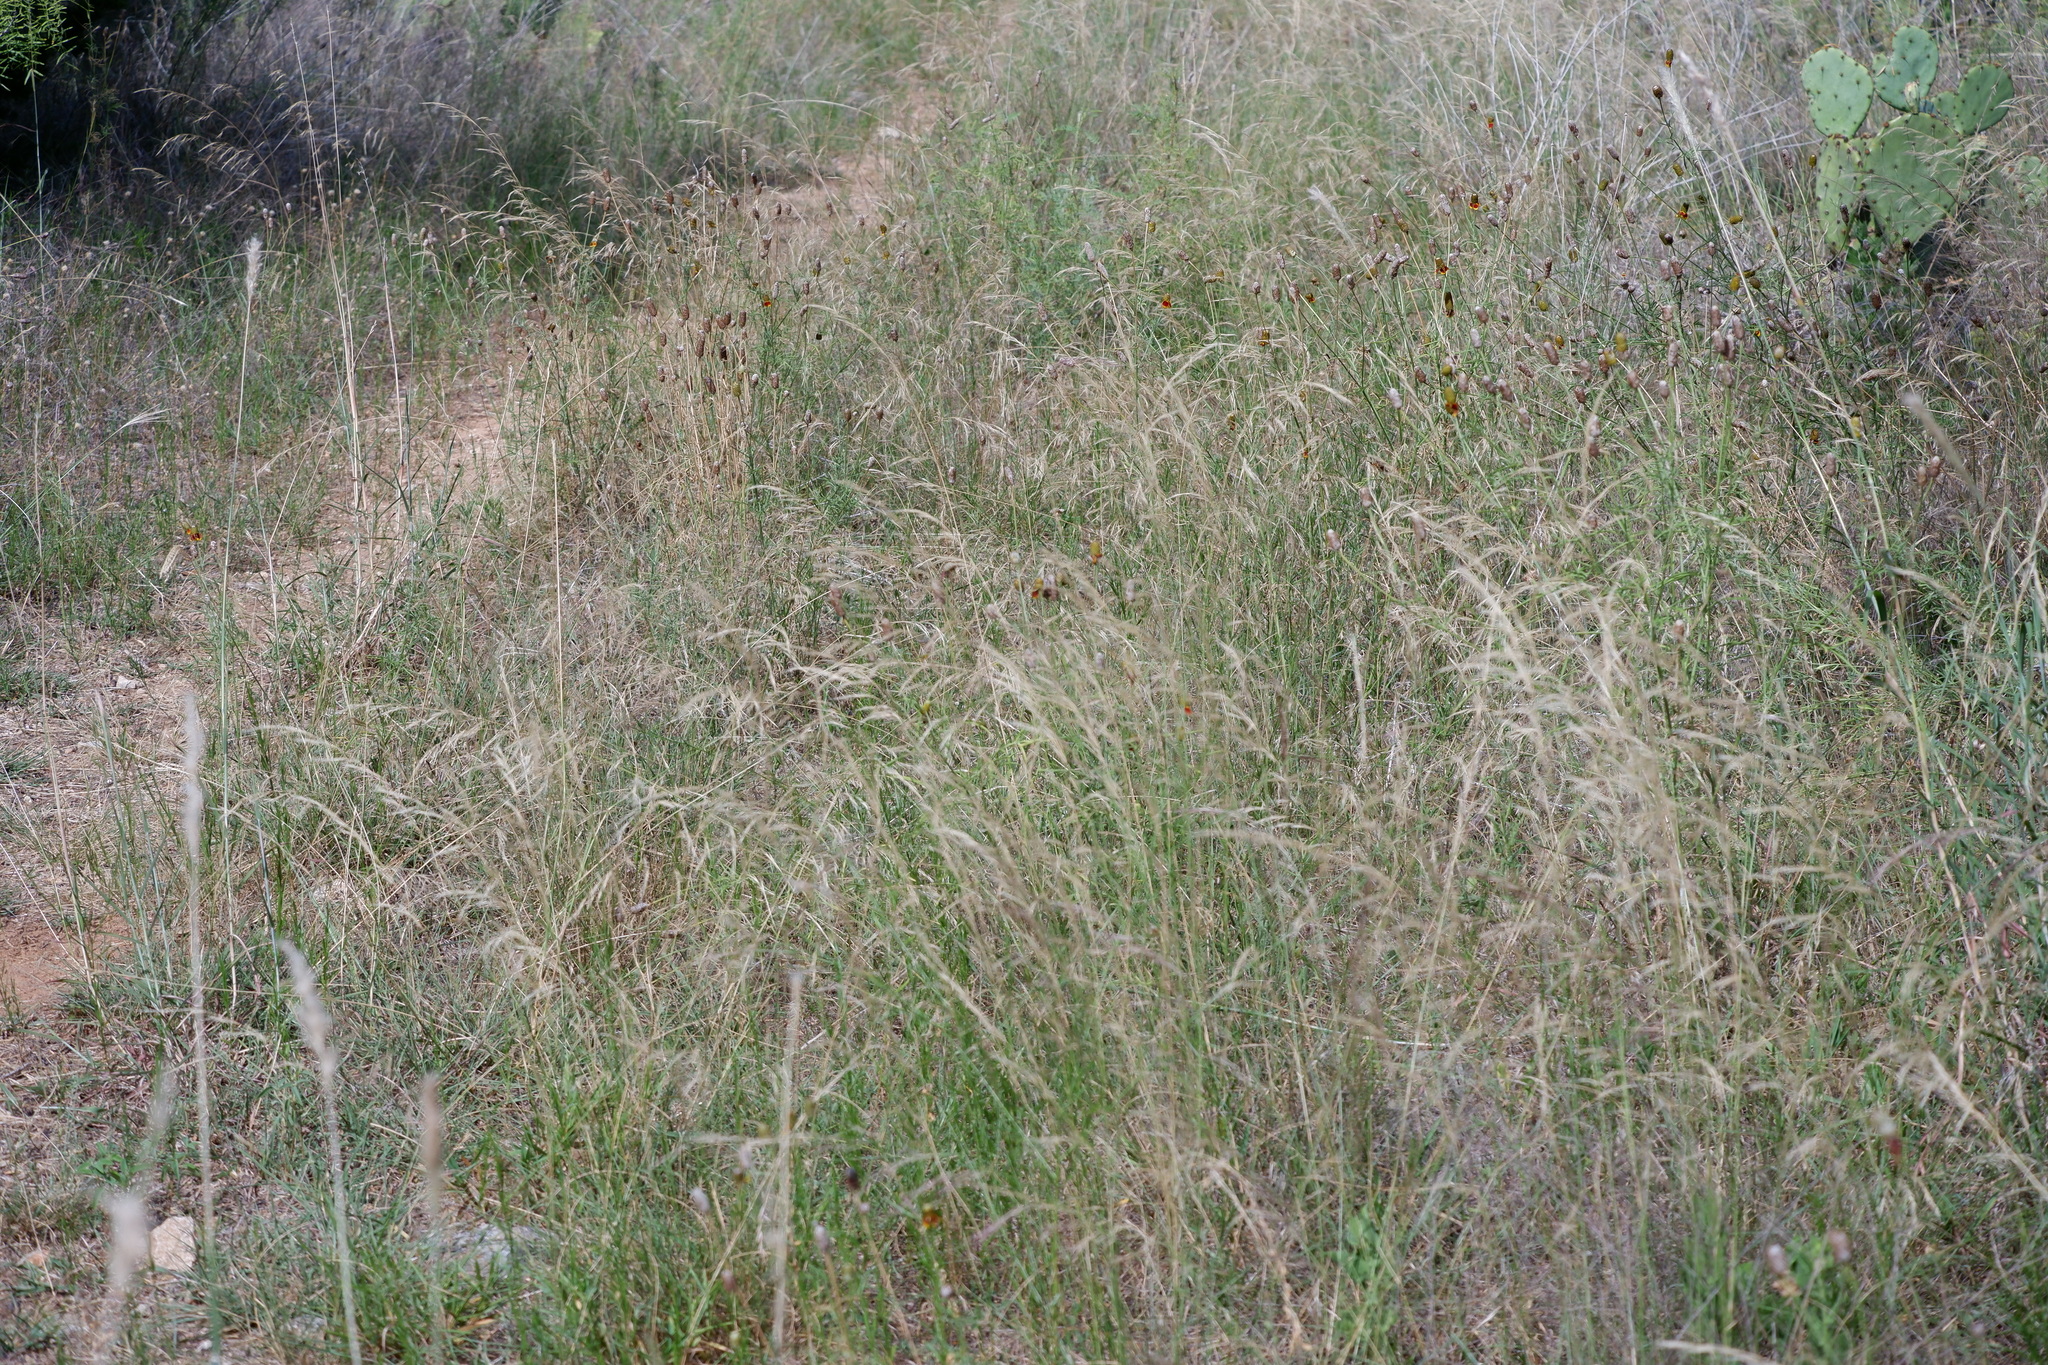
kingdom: Plantae
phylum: Tracheophyta
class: Liliopsida
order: Poales
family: Poaceae
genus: Aristida
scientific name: Aristida purpurea
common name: Purple threeawn
